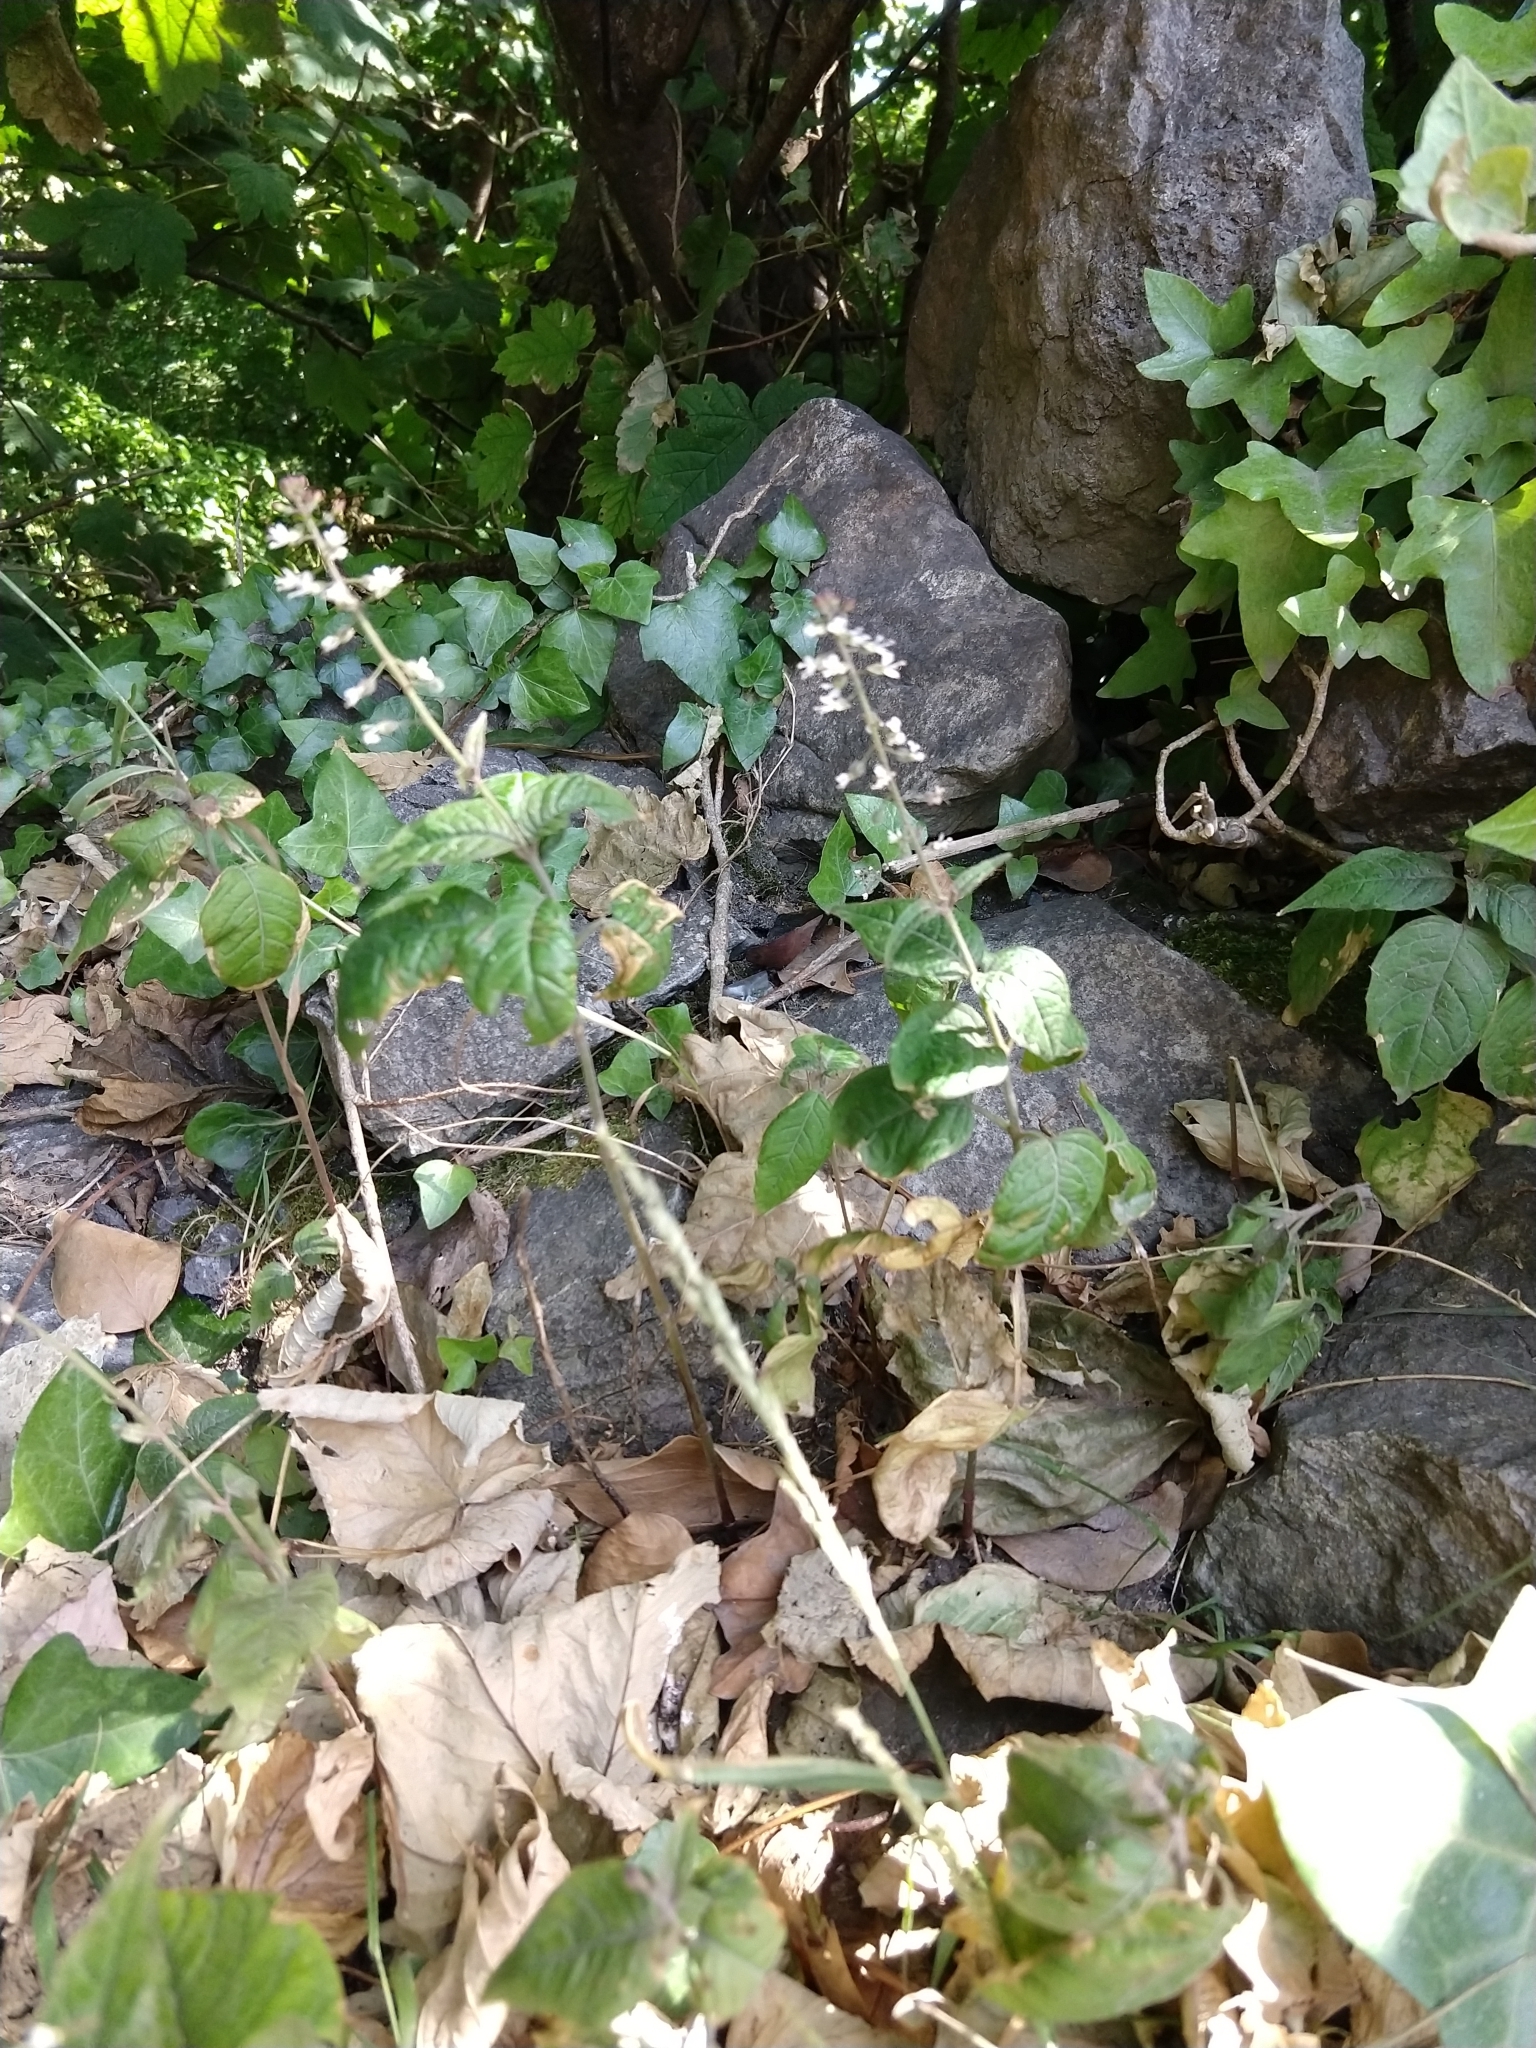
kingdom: Plantae
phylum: Tracheophyta
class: Magnoliopsida
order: Myrtales
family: Onagraceae
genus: Circaea
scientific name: Circaea lutetiana
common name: Enchanter's-nightshade
